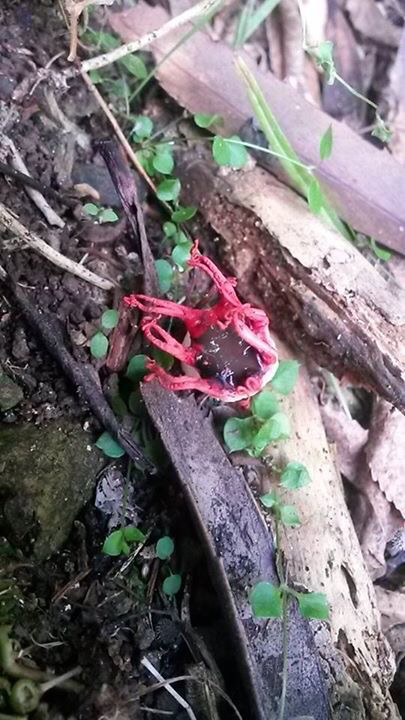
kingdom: Fungi
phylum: Basidiomycota
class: Agaricomycetes
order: Phallales
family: Phallaceae
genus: Aseroe
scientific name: Aseroe rubra
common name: Starfish fungus
